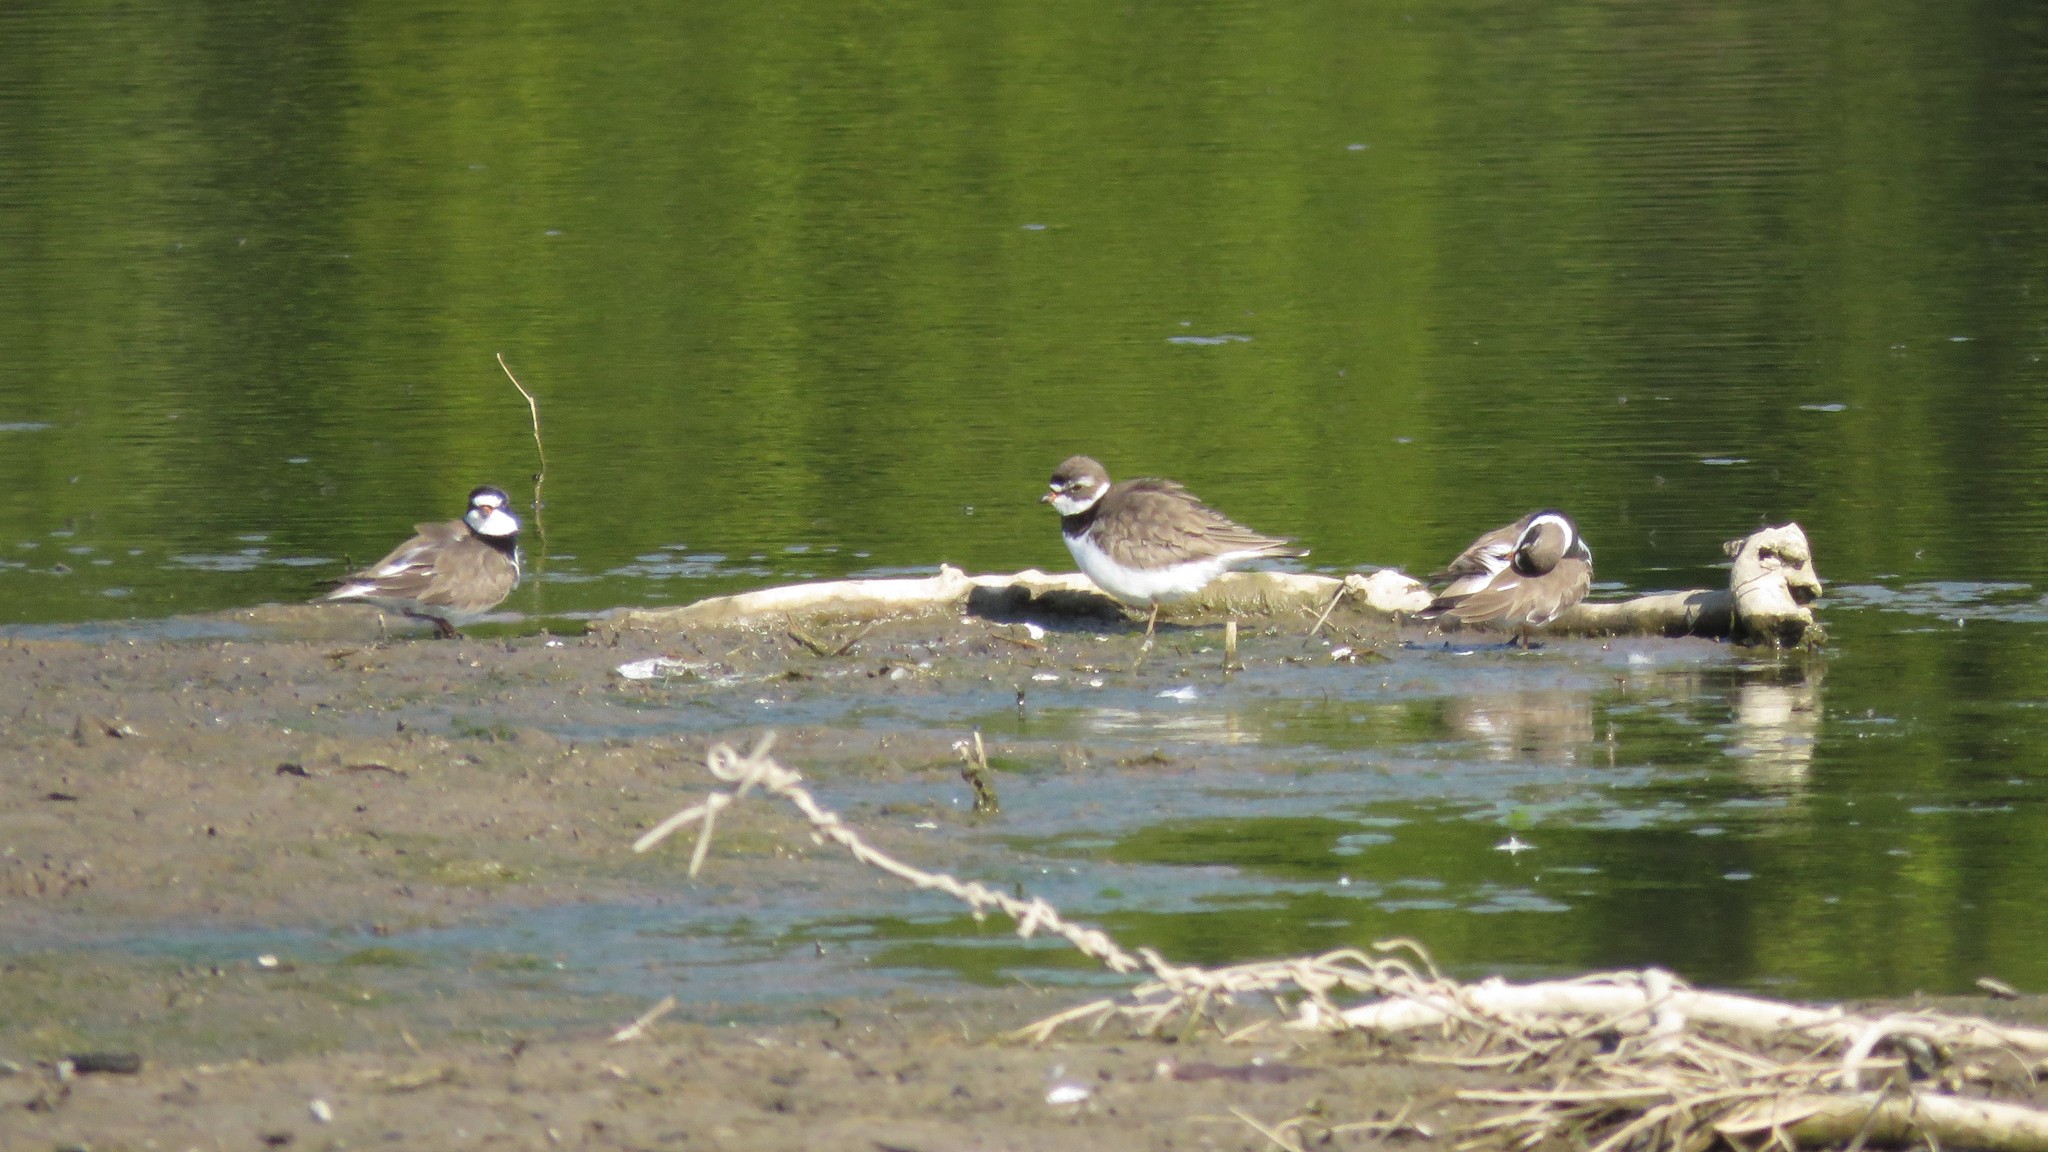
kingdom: Animalia
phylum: Chordata
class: Aves
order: Charadriiformes
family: Charadriidae
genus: Charadrius
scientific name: Charadrius semipalmatus
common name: Semipalmated plover
